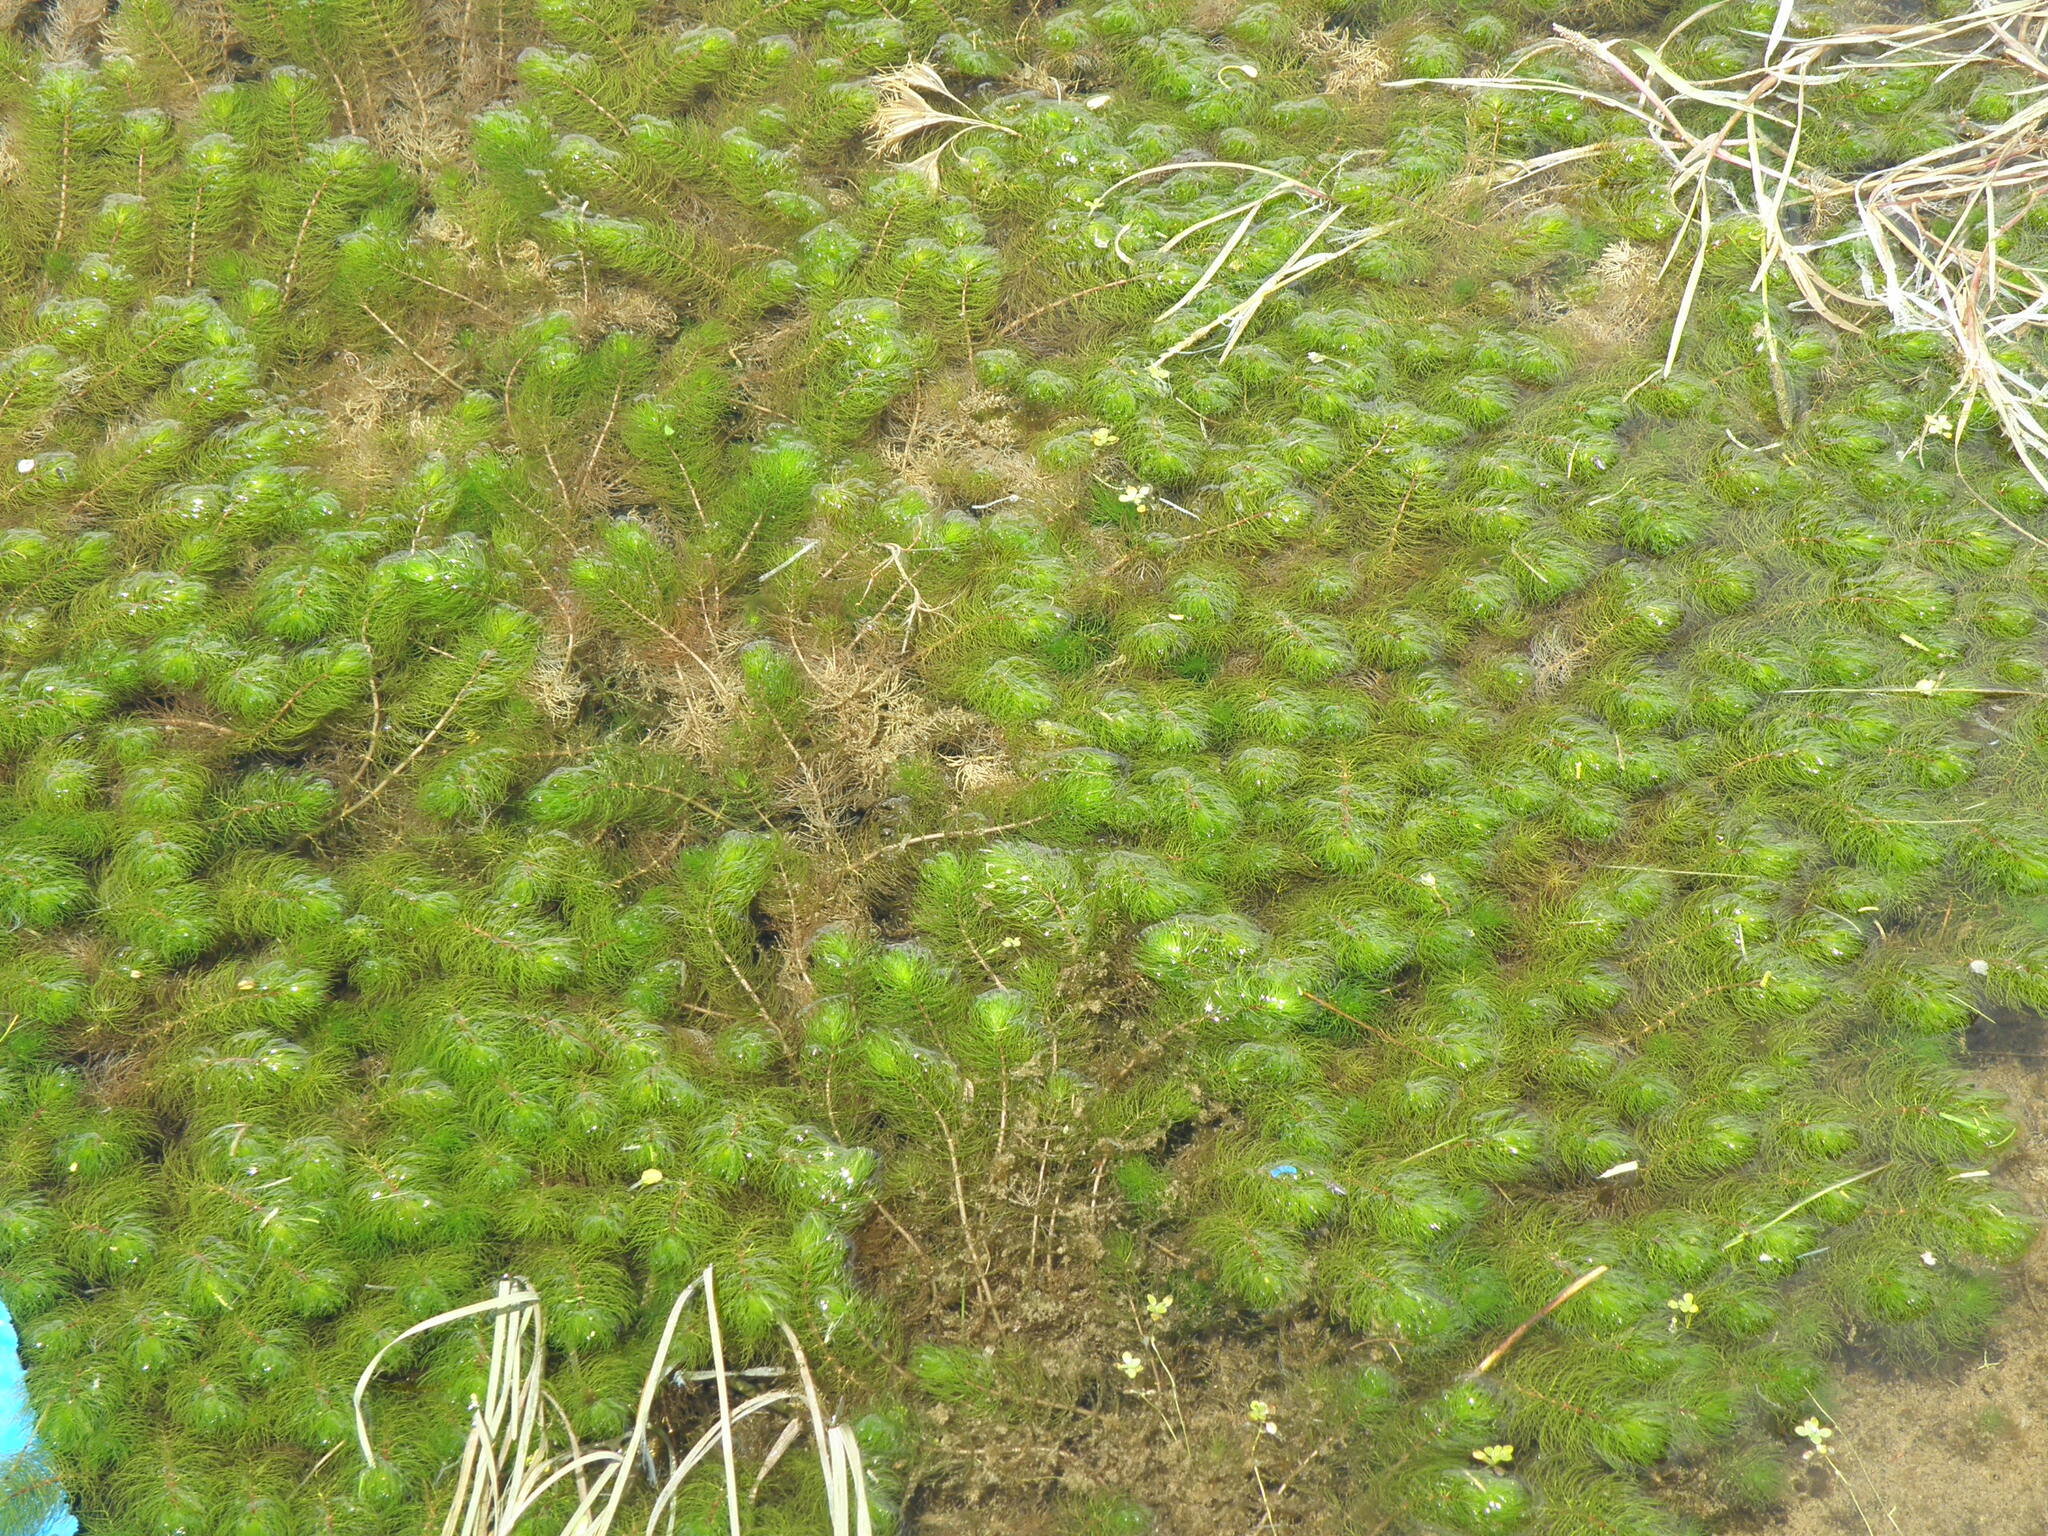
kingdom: Plantae
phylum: Tracheophyta
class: Magnoliopsida
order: Saxifragales
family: Haloragaceae
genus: Myriophyllum
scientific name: Myriophyllum quitense
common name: Andean water milfoil
